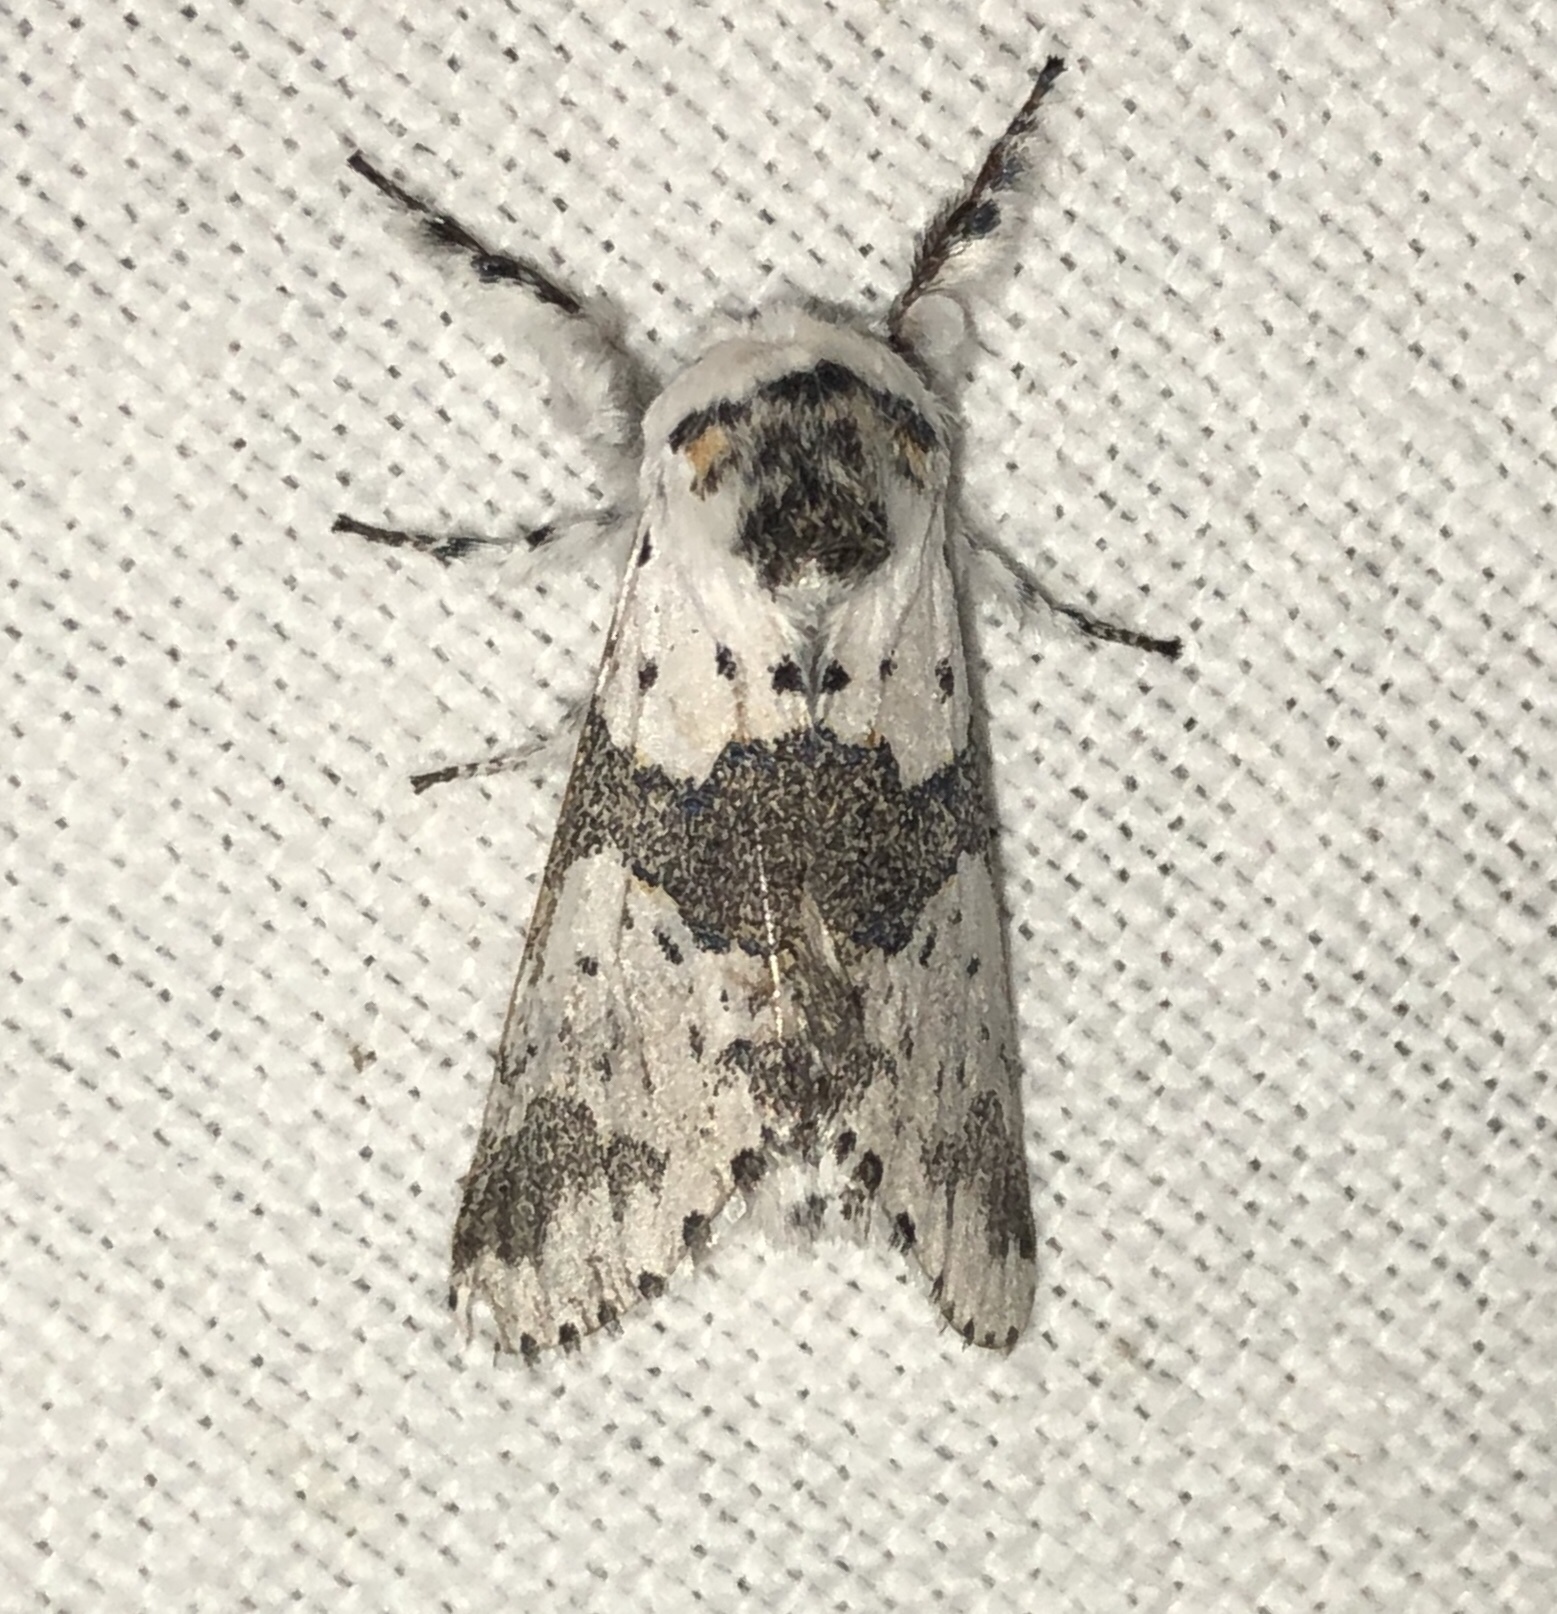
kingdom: Animalia
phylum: Arthropoda
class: Insecta
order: Lepidoptera
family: Notodontidae
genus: Furcula
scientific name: Furcula borealis
